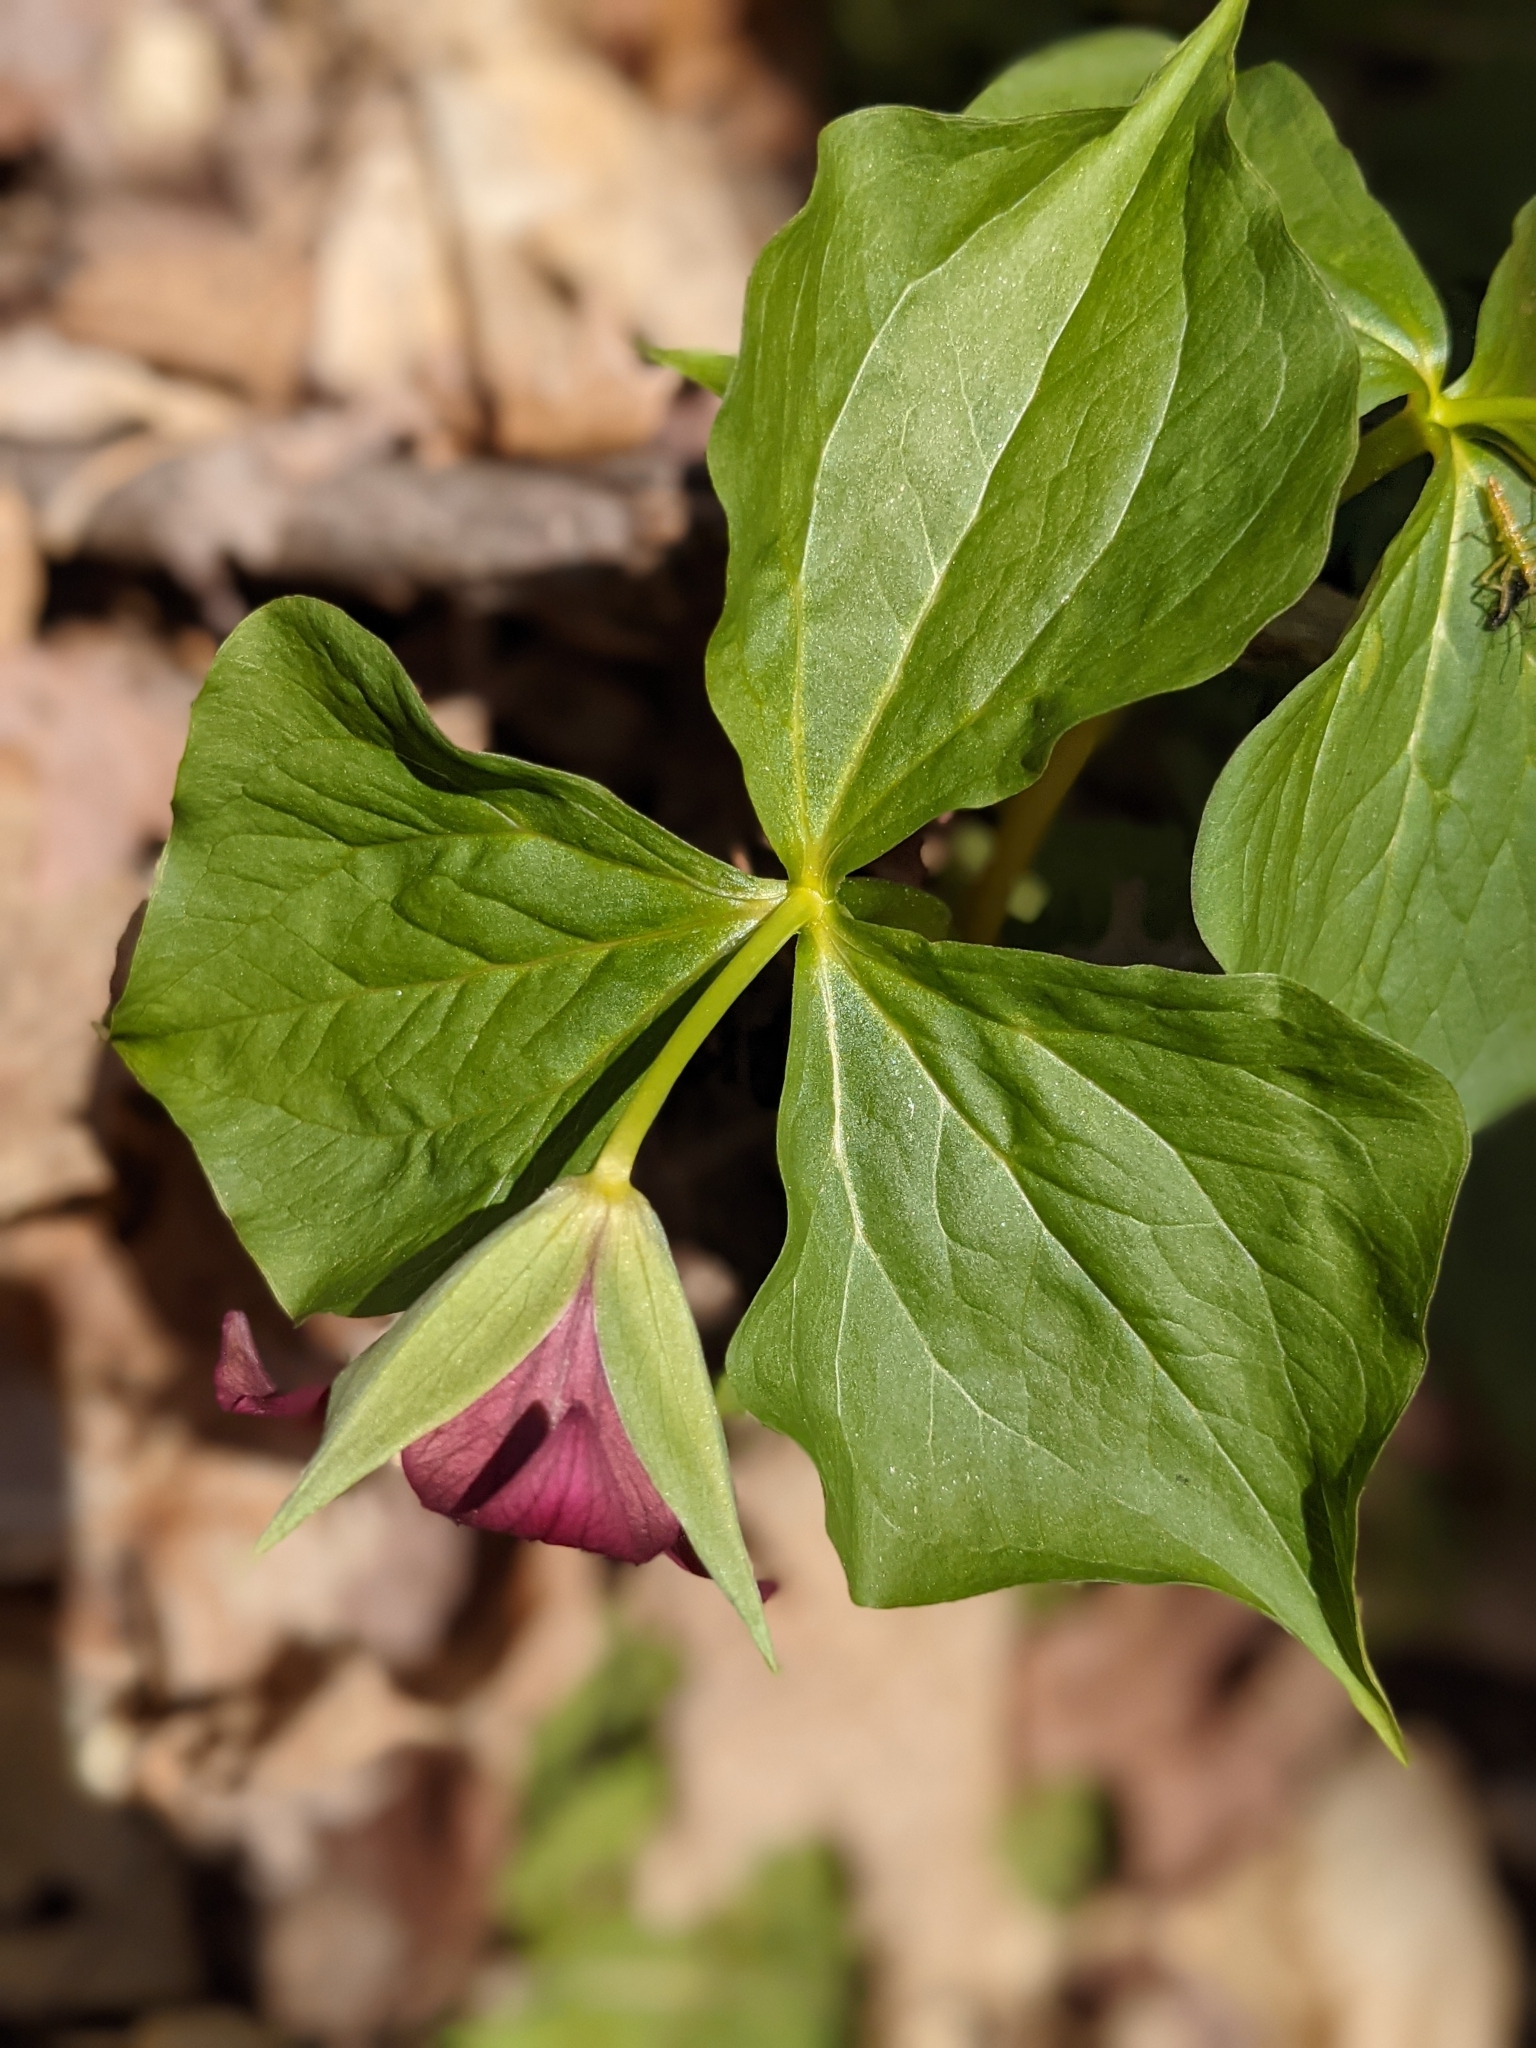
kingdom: Plantae
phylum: Tracheophyta
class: Liliopsida
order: Liliales
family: Melanthiaceae
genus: Trillium
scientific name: Trillium erectum
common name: Purple trillium
